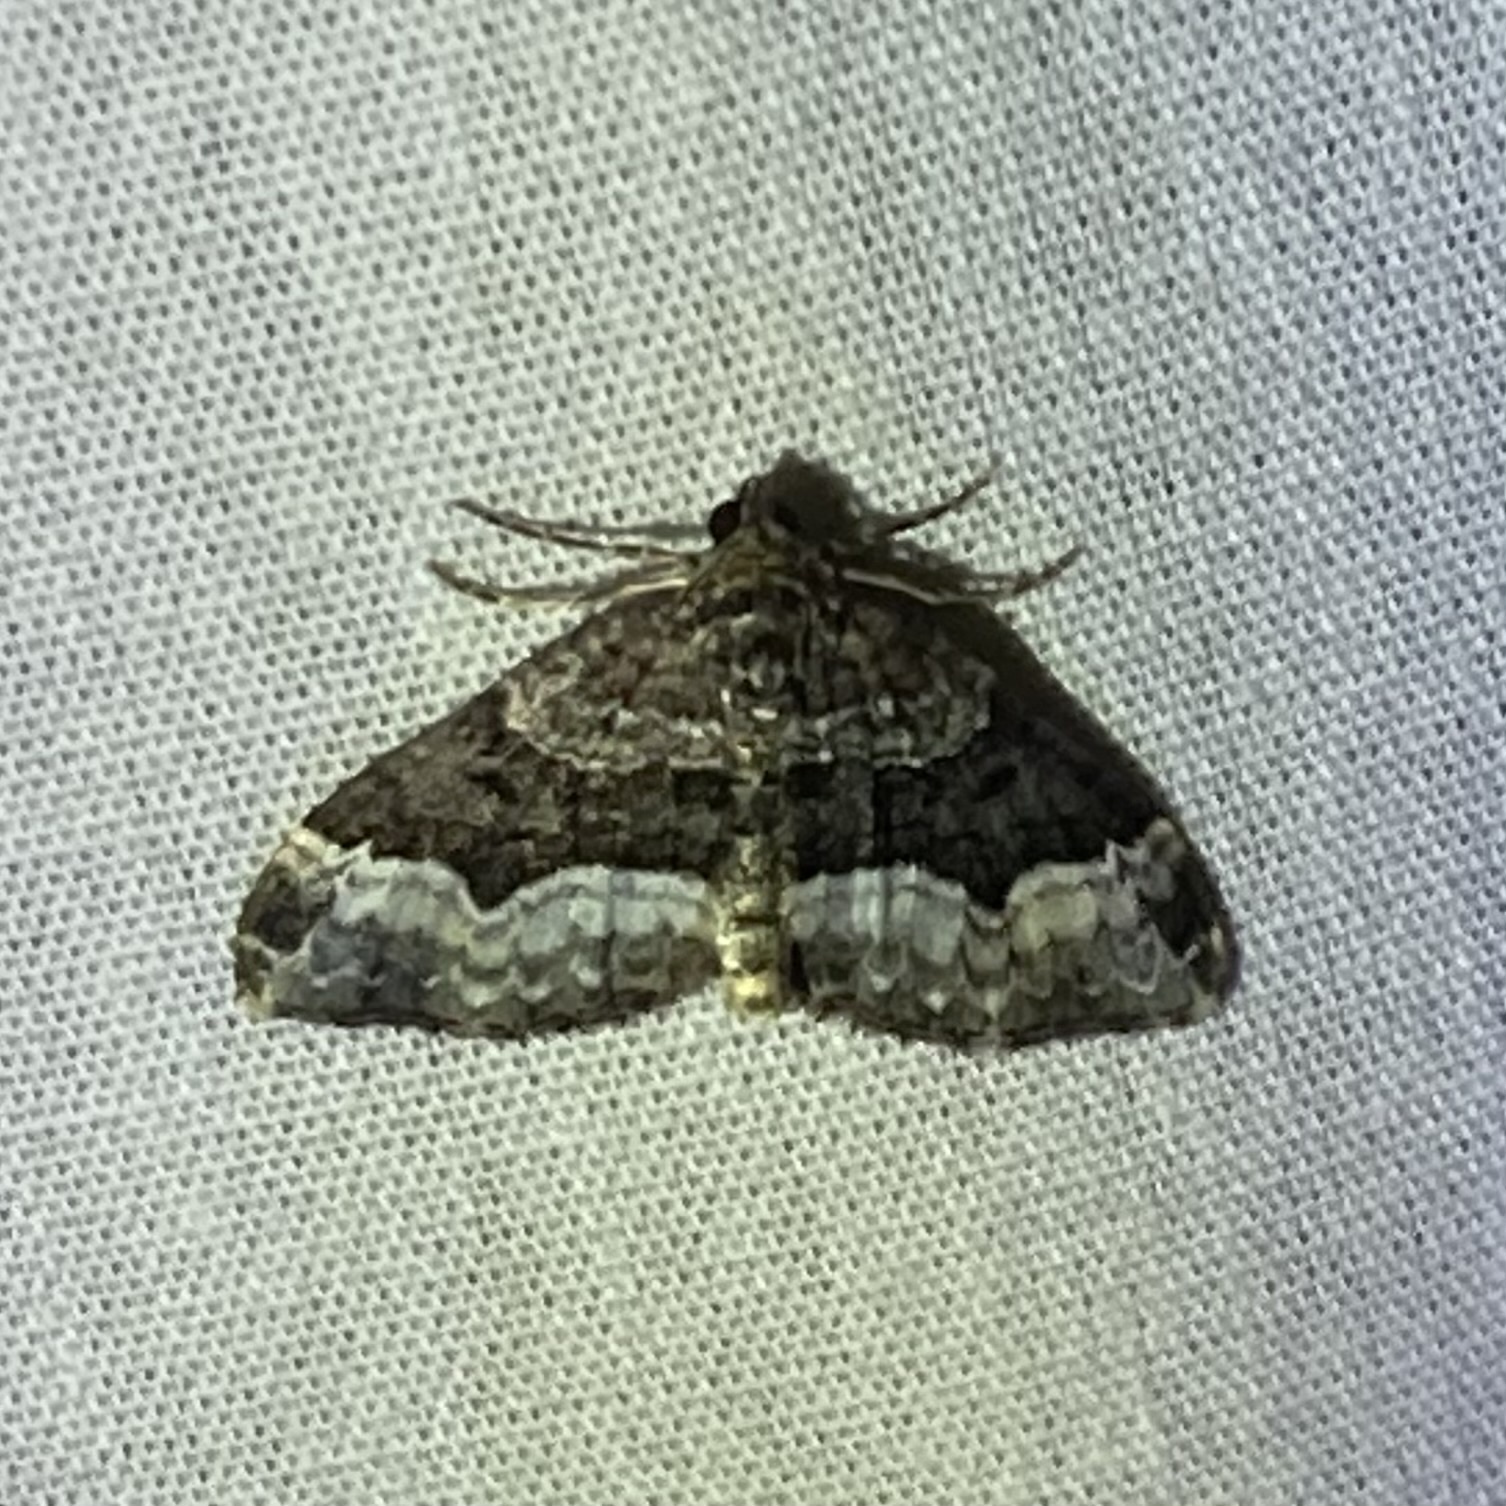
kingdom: Animalia
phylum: Arthropoda
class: Insecta
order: Lepidoptera
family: Geometridae
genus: Euphyia
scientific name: Euphyia intermediata
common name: Sharp-angled carpet
